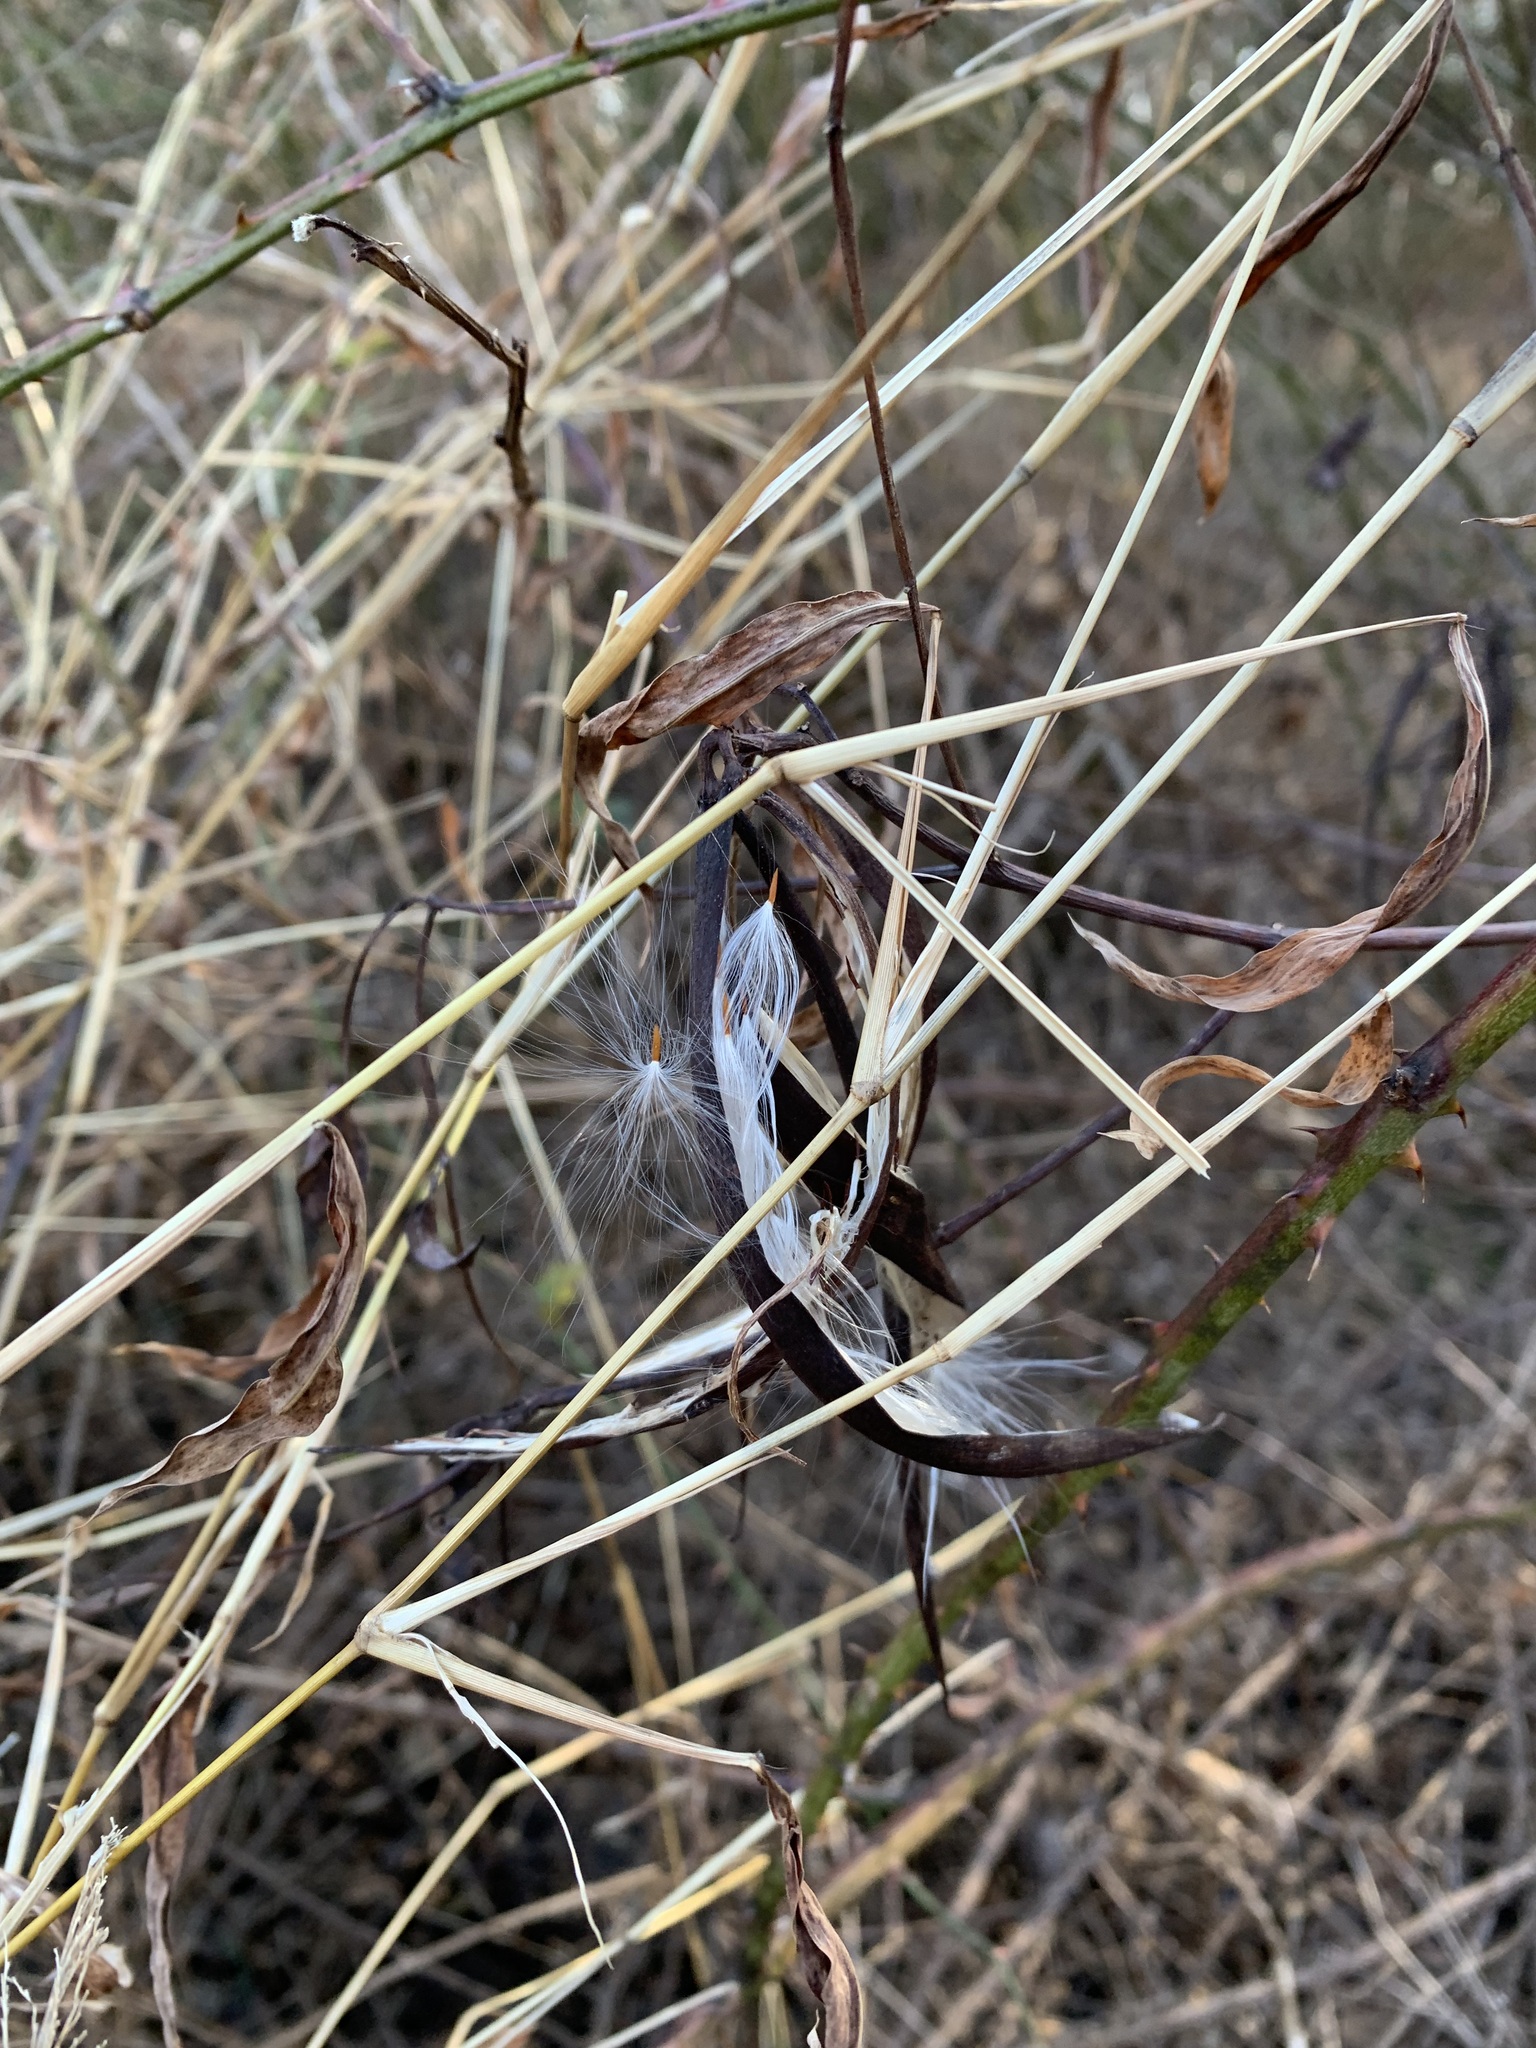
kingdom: Plantae
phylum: Tracheophyta
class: Magnoliopsida
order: Gentianales
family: Apocynaceae
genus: Apocynum
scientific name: Apocynum cannabinum
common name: Hemp dogbane
